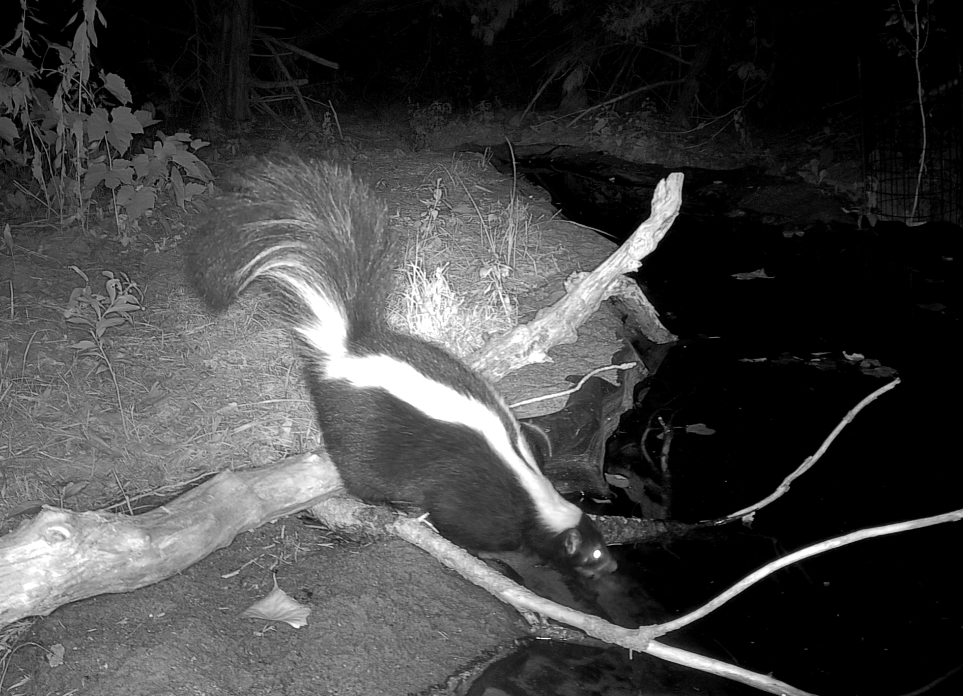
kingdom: Animalia
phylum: Chordata
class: Mammalia
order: Carnivora
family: Mephitidae
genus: Mephitis
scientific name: Mephitis mephitis
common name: Striped skunk
